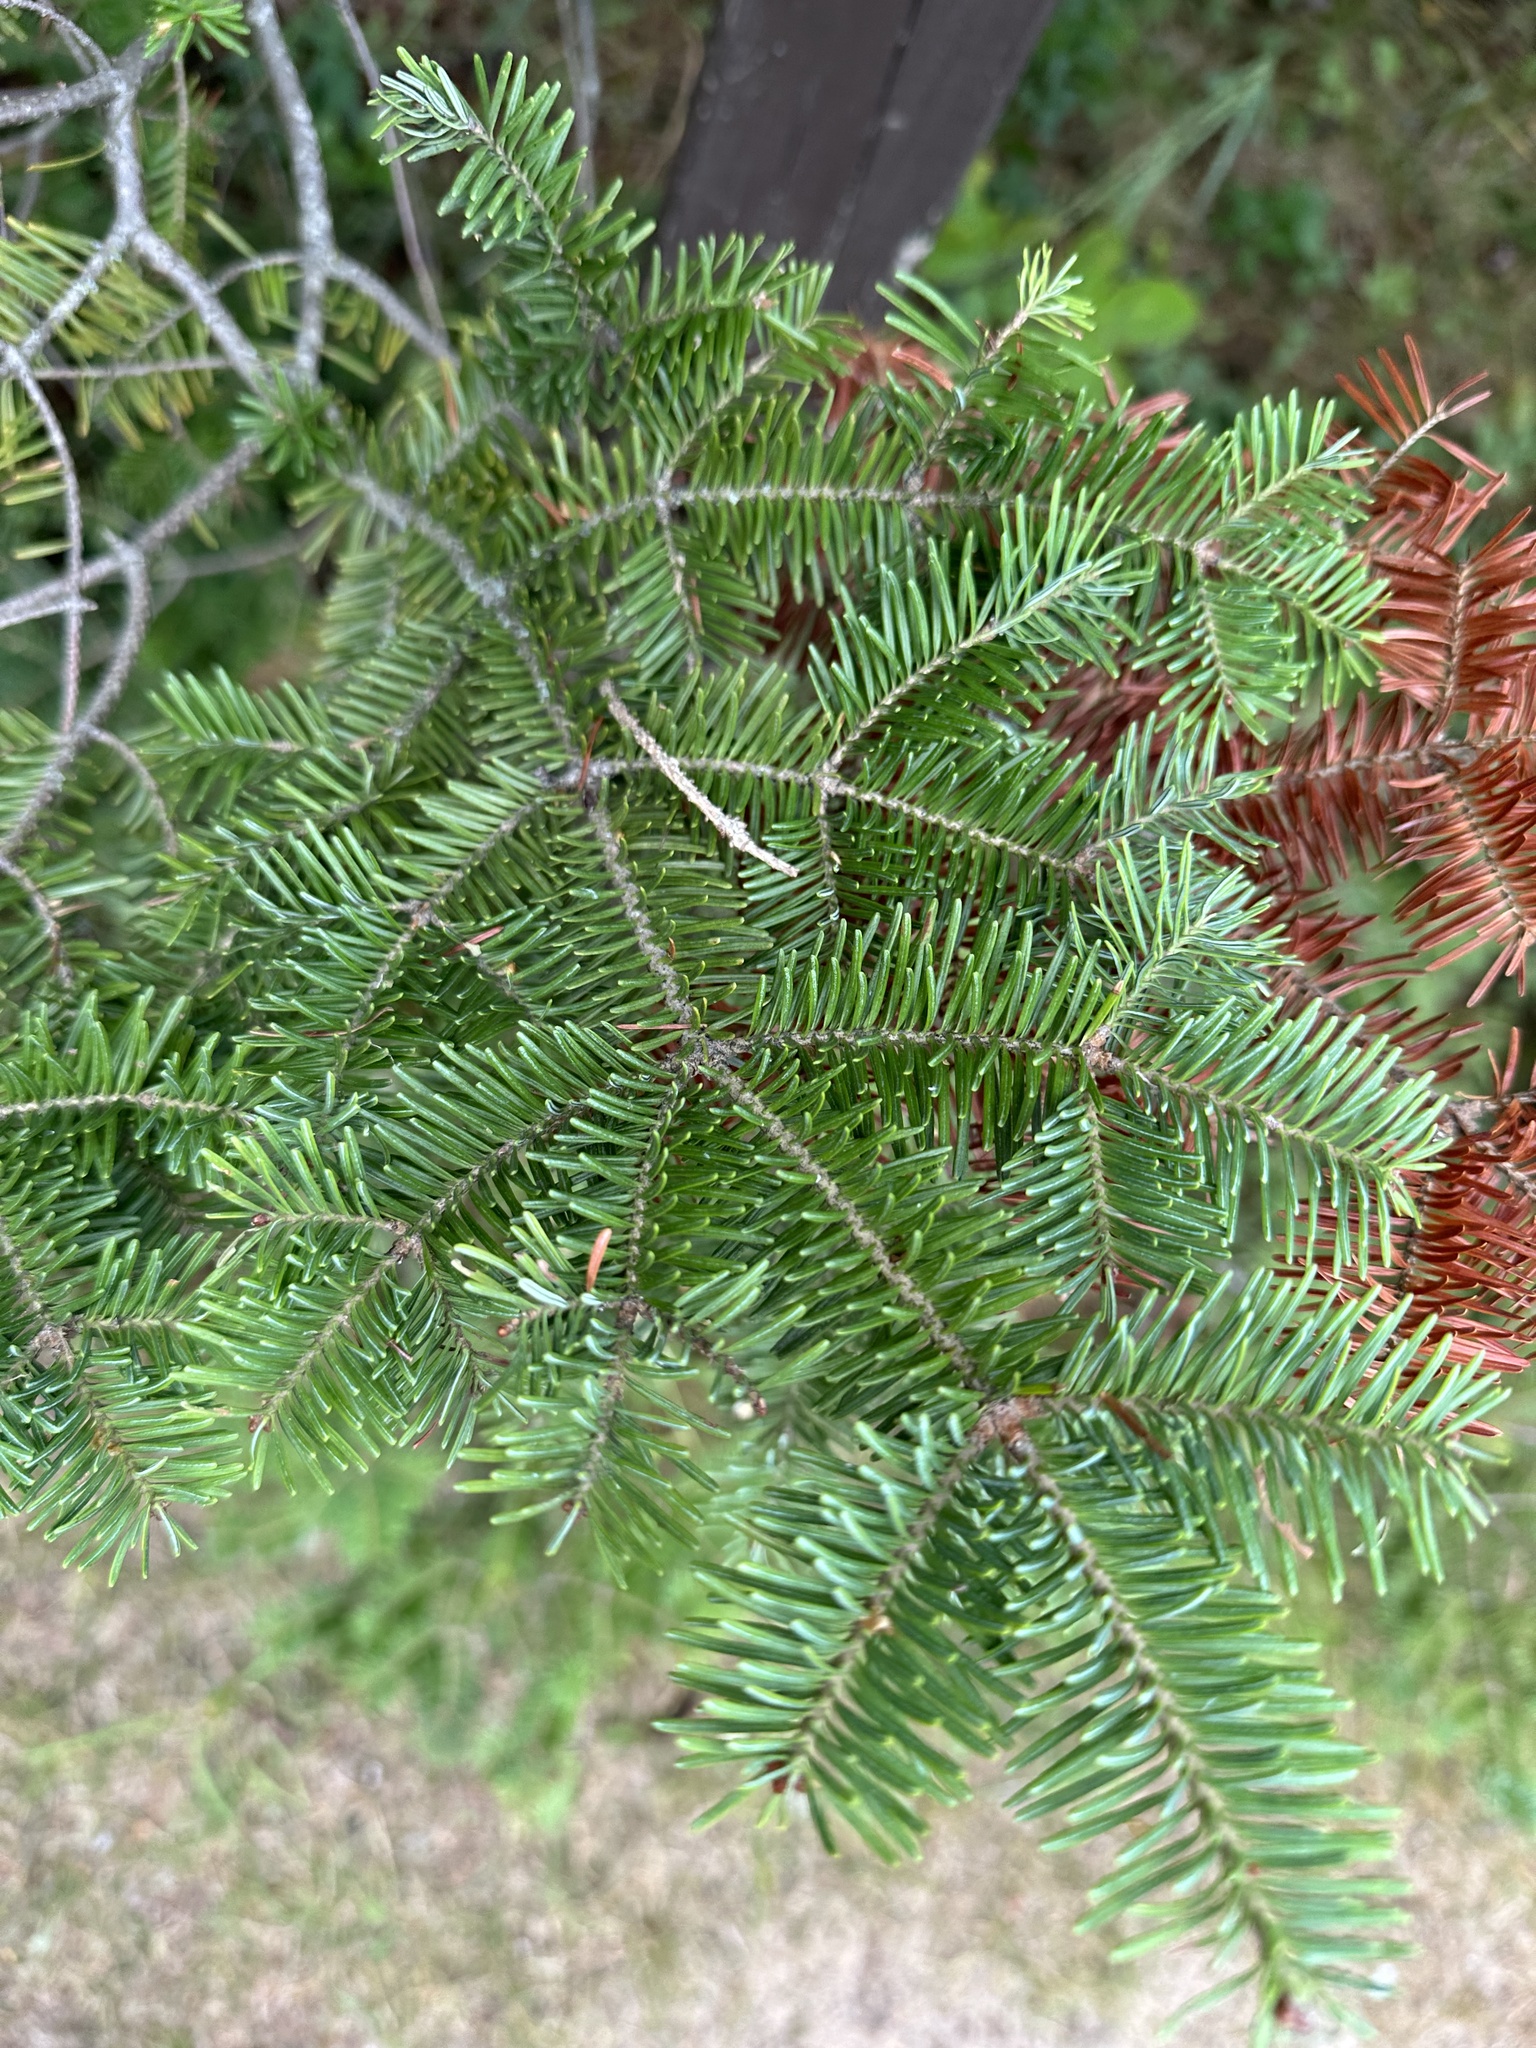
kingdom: Plantae
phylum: Tracheophyta
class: Pinopsida
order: Pinales
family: Pinaceae
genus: Abies
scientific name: Abies balsamea
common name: Balsam fir
